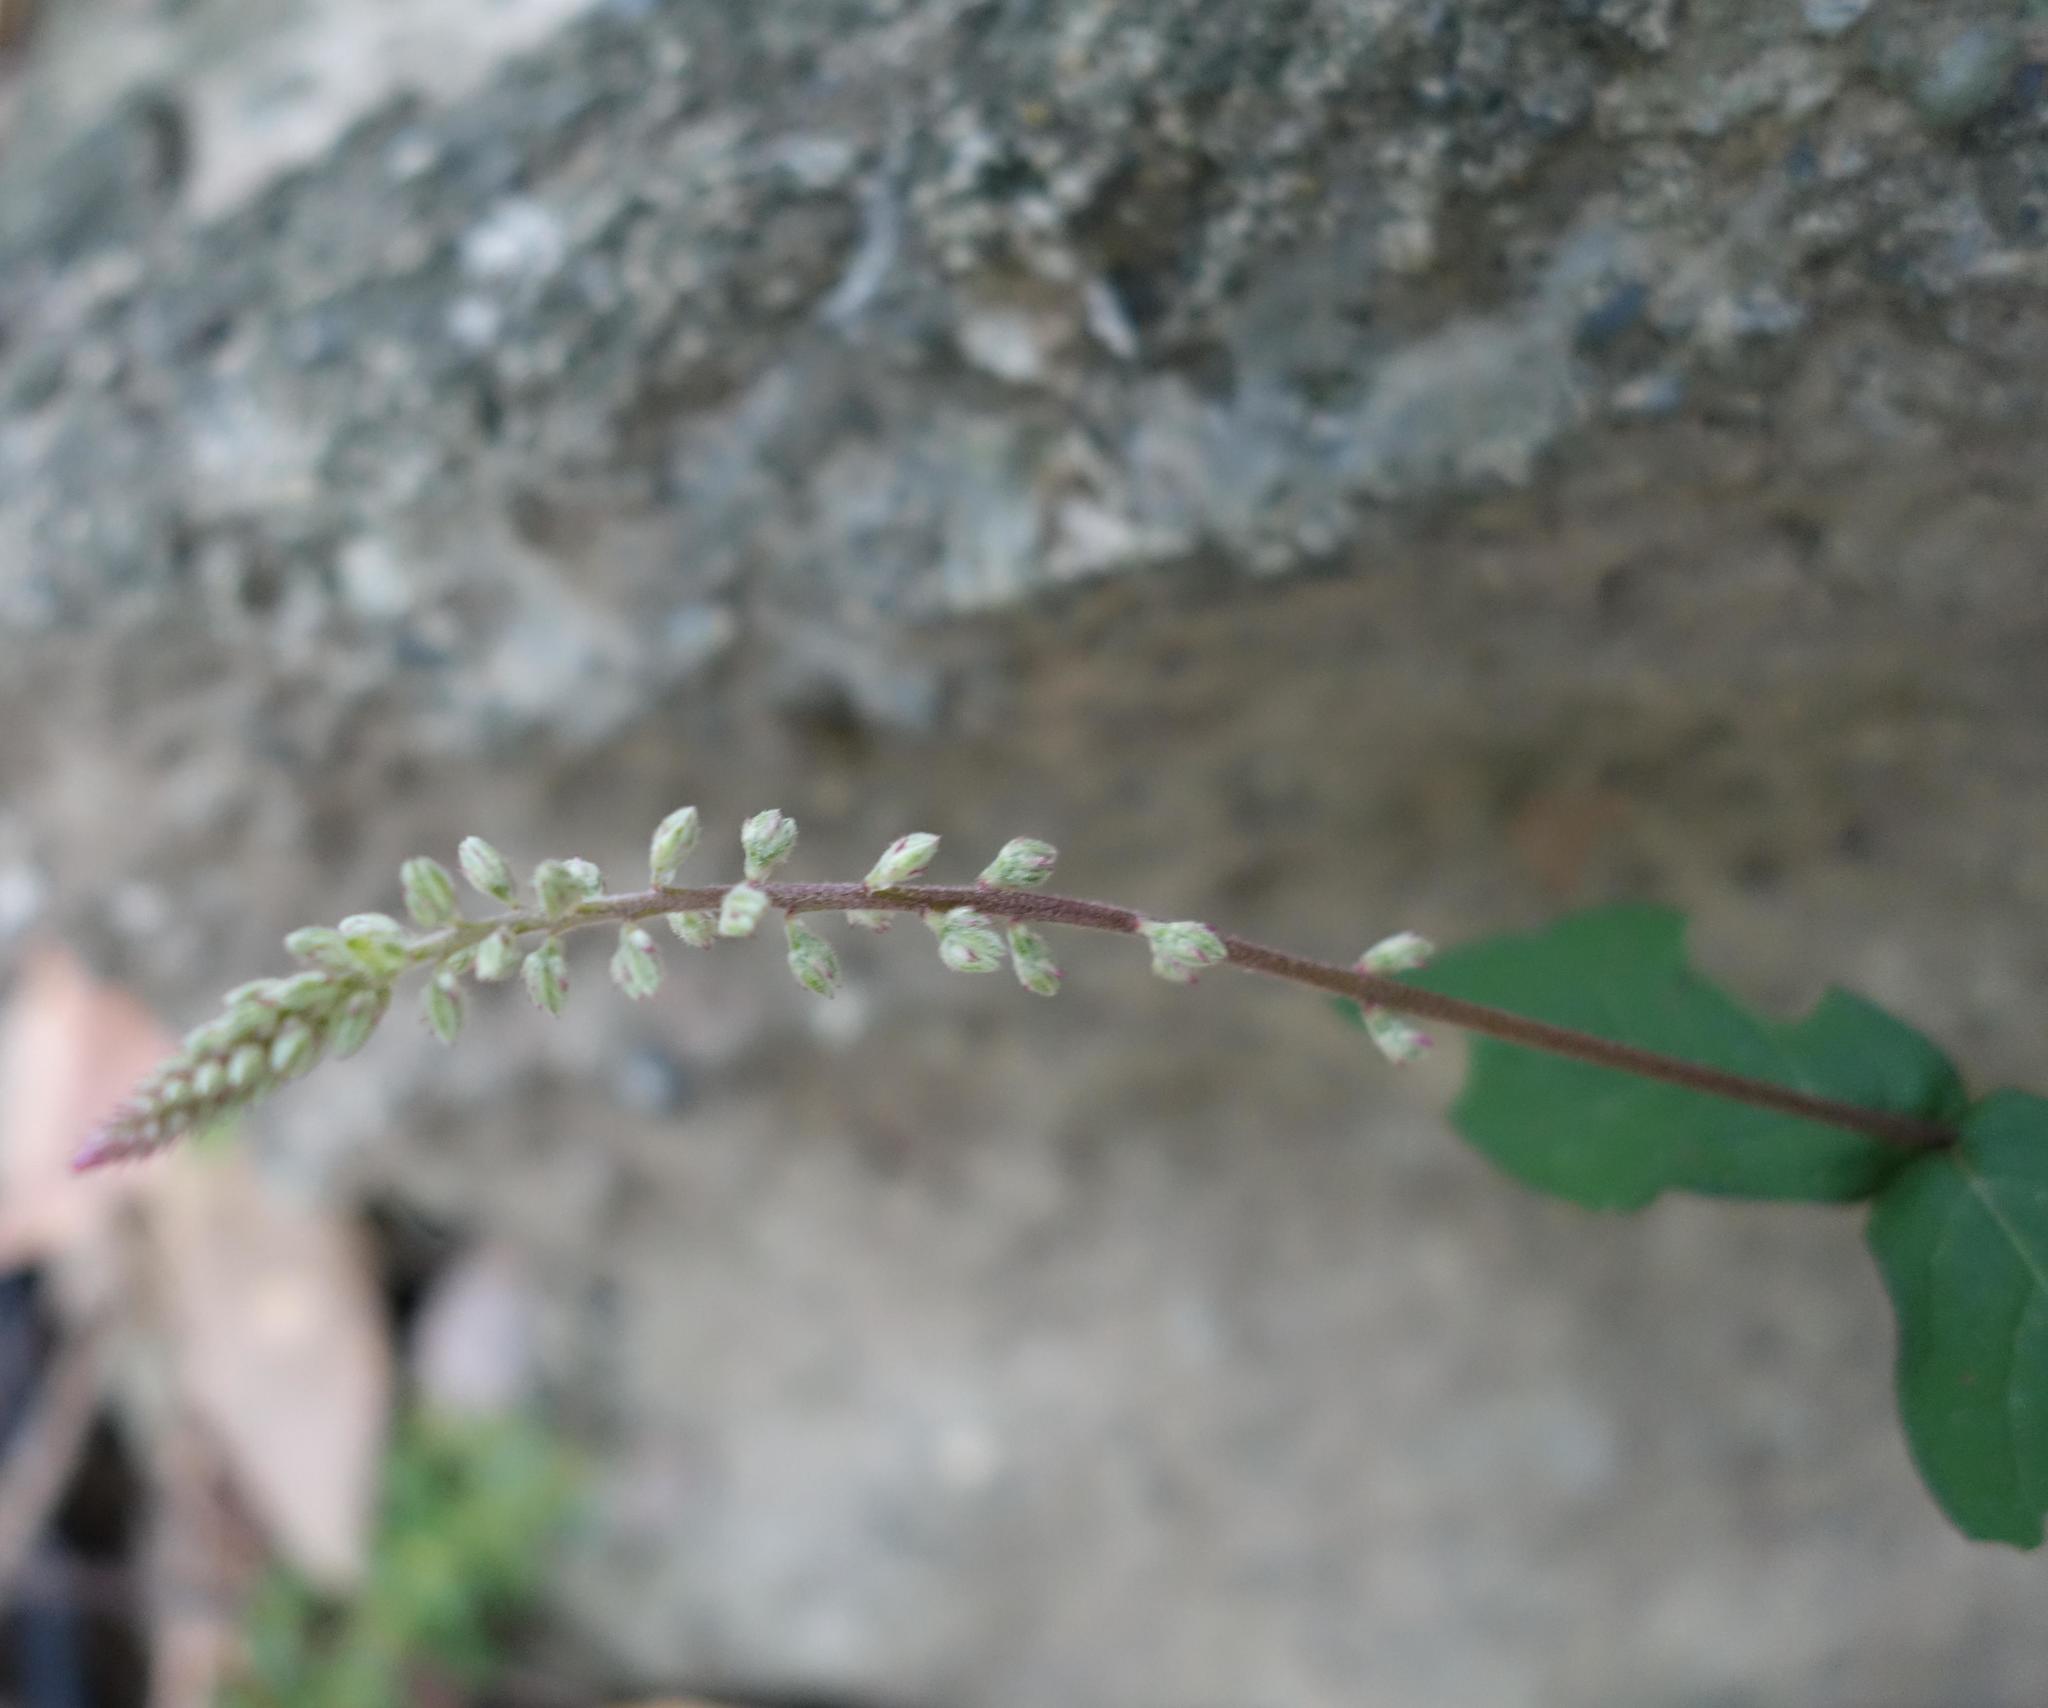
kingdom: Plantae
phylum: Tracheophyta
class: Magnoliopsida
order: Caryophyllales
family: Amaranthaceae
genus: Cyathula
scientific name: Cyathula prostrata
